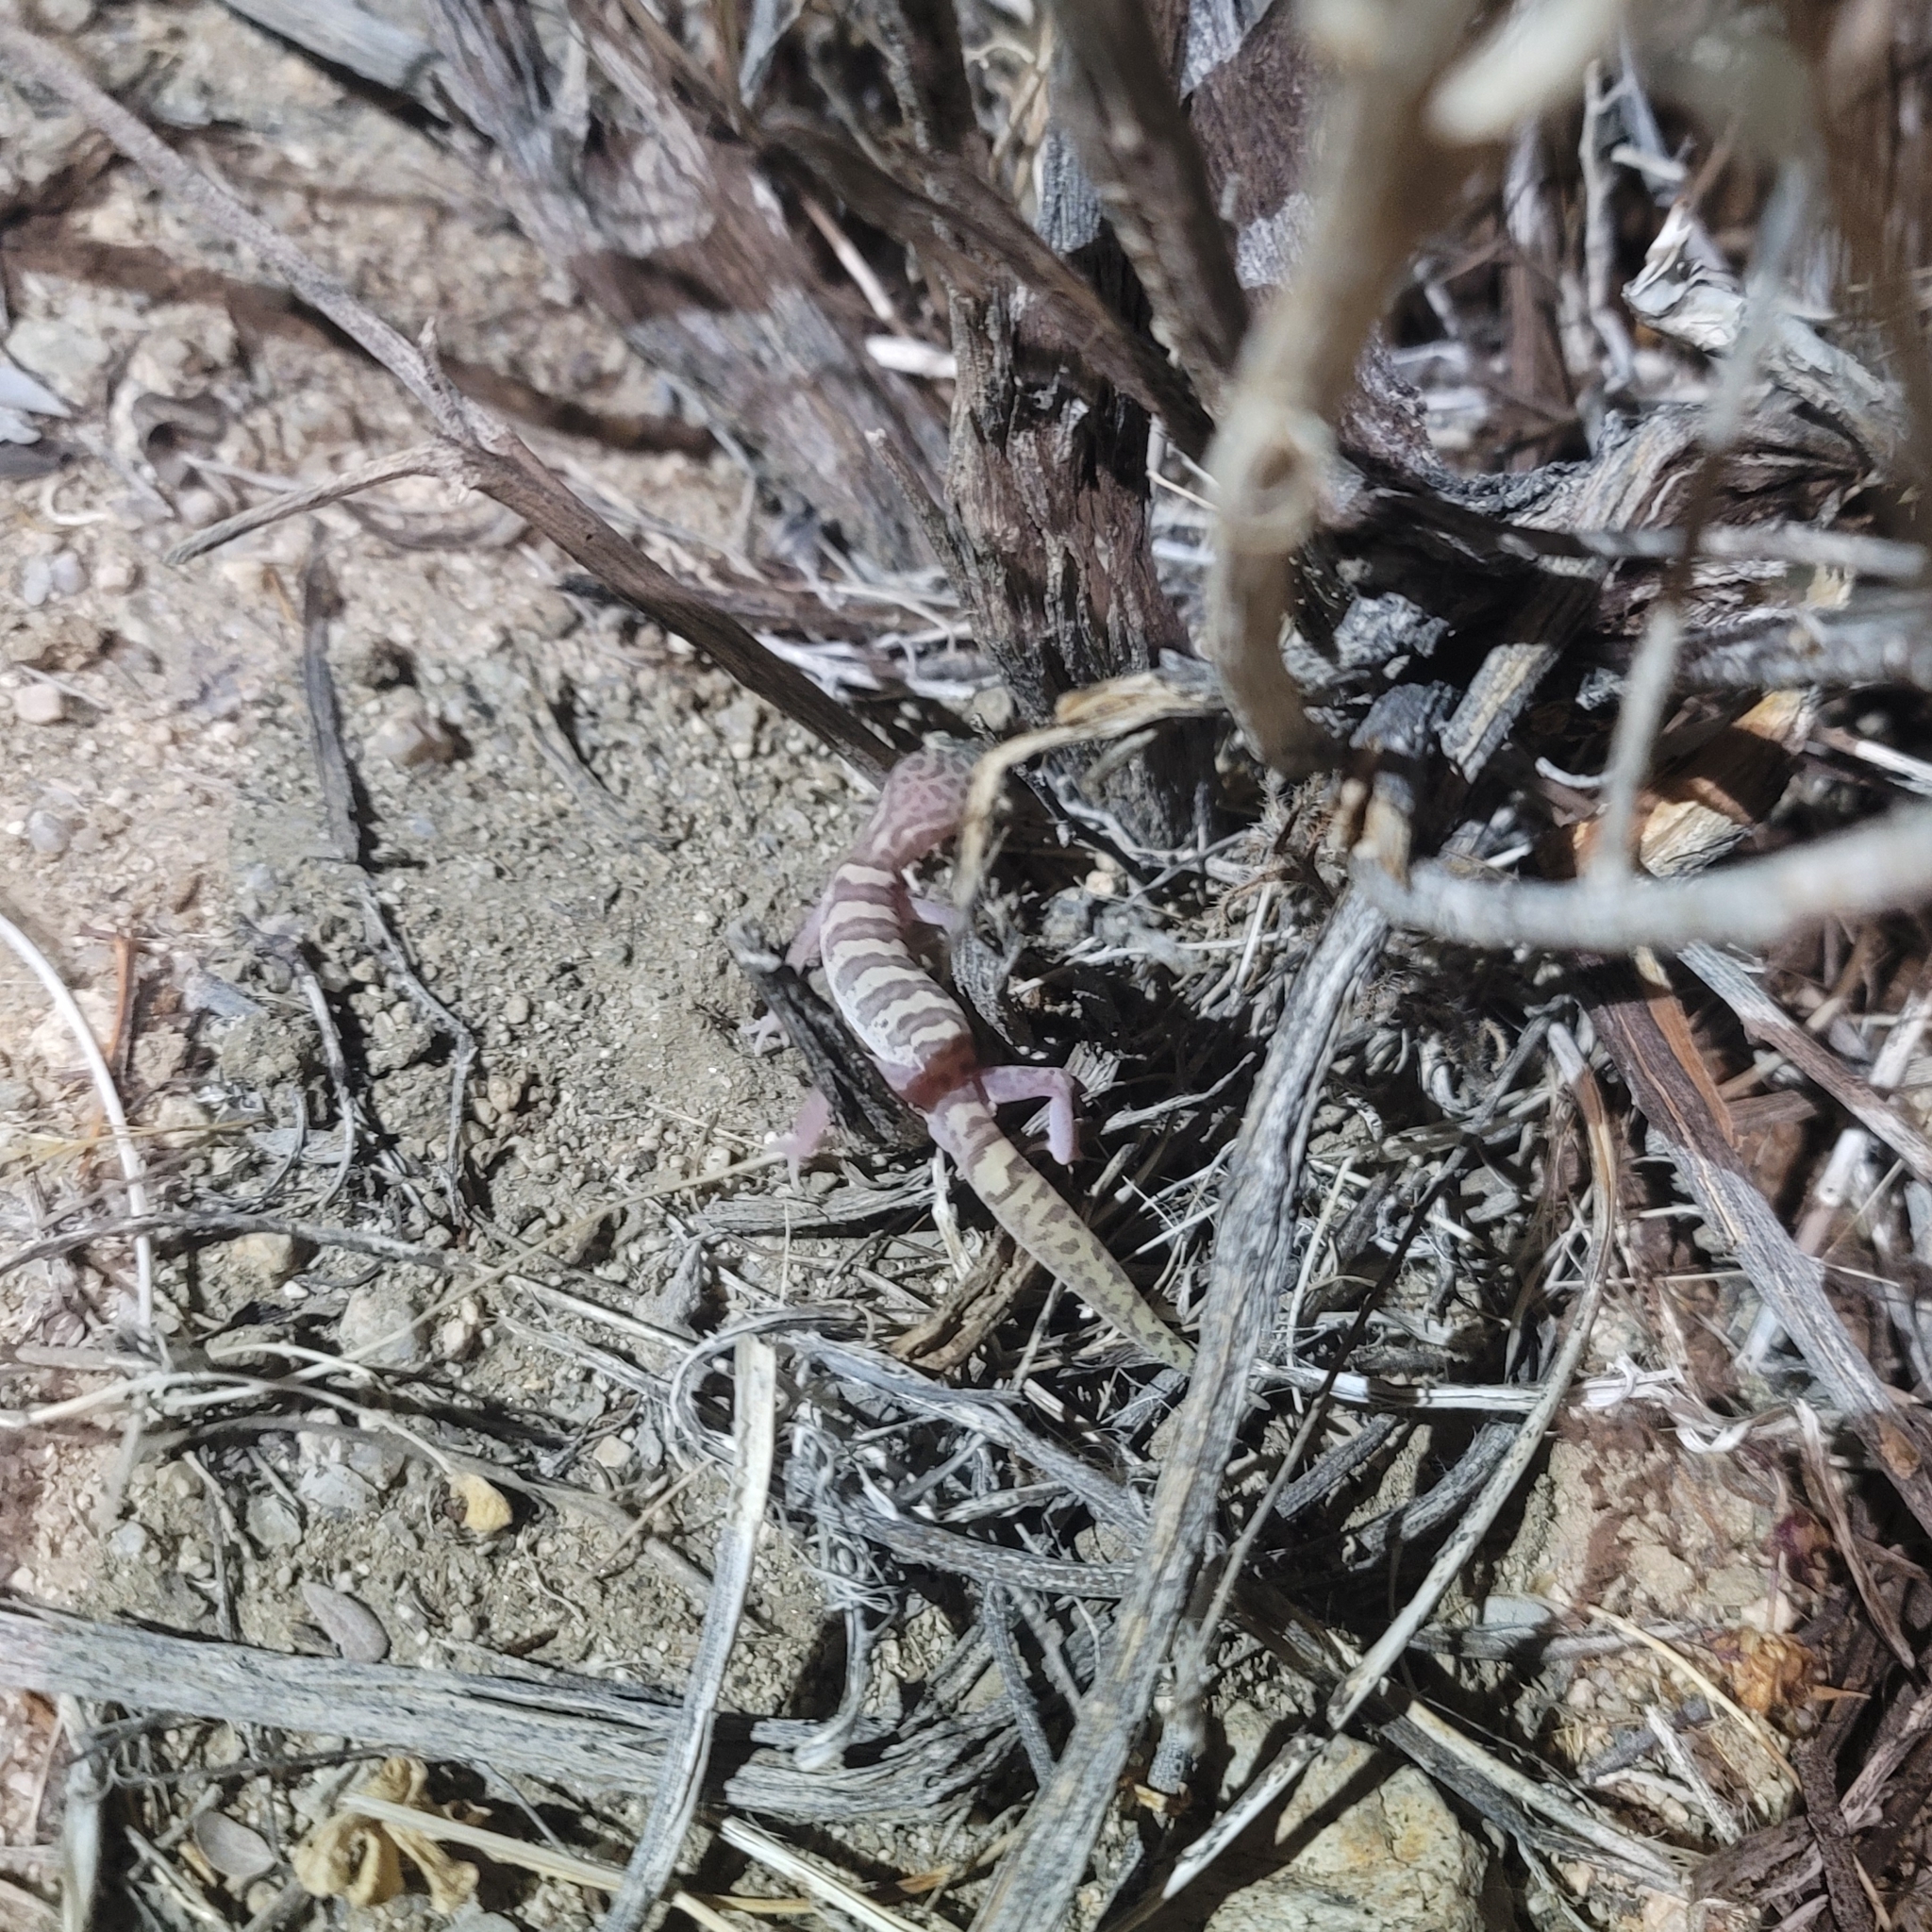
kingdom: Animalia
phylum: Chordata
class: Squamata
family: Eublepharidae
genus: Coleonyx
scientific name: Coleonyx variegatus
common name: Western banded gecko
